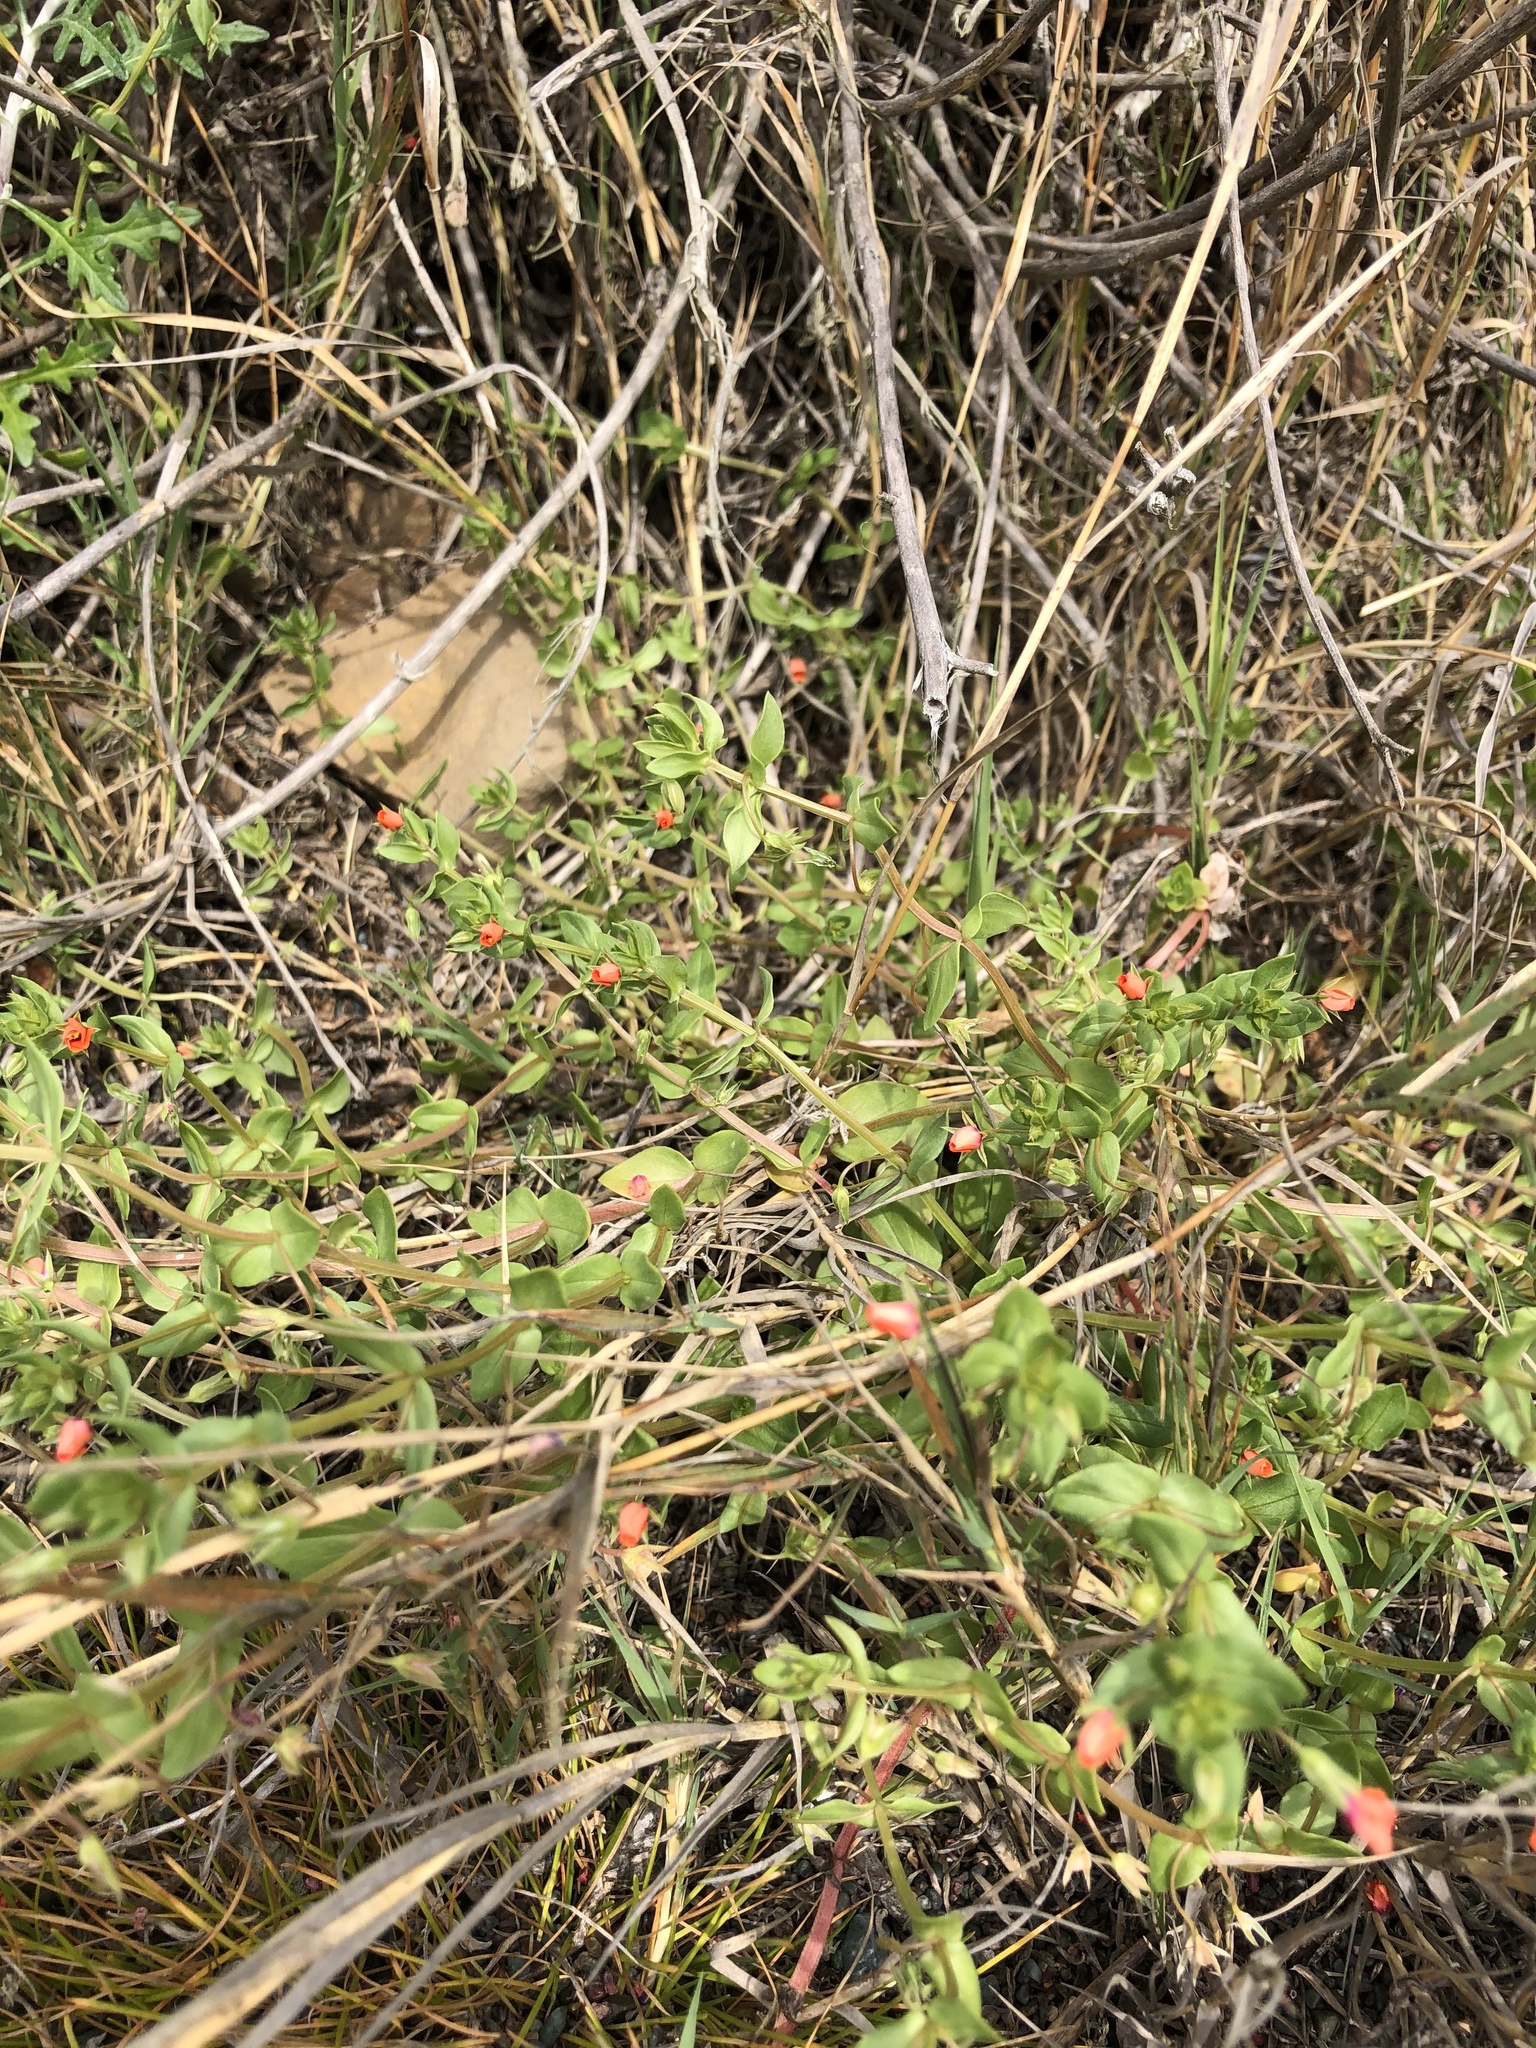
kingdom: Plantae
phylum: Tracheophyta
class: Magnoliopsida
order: Ericales
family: Primulaceae
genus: Lysimachia
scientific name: Lysimachia arvensis
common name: Scarlet pimpernel
